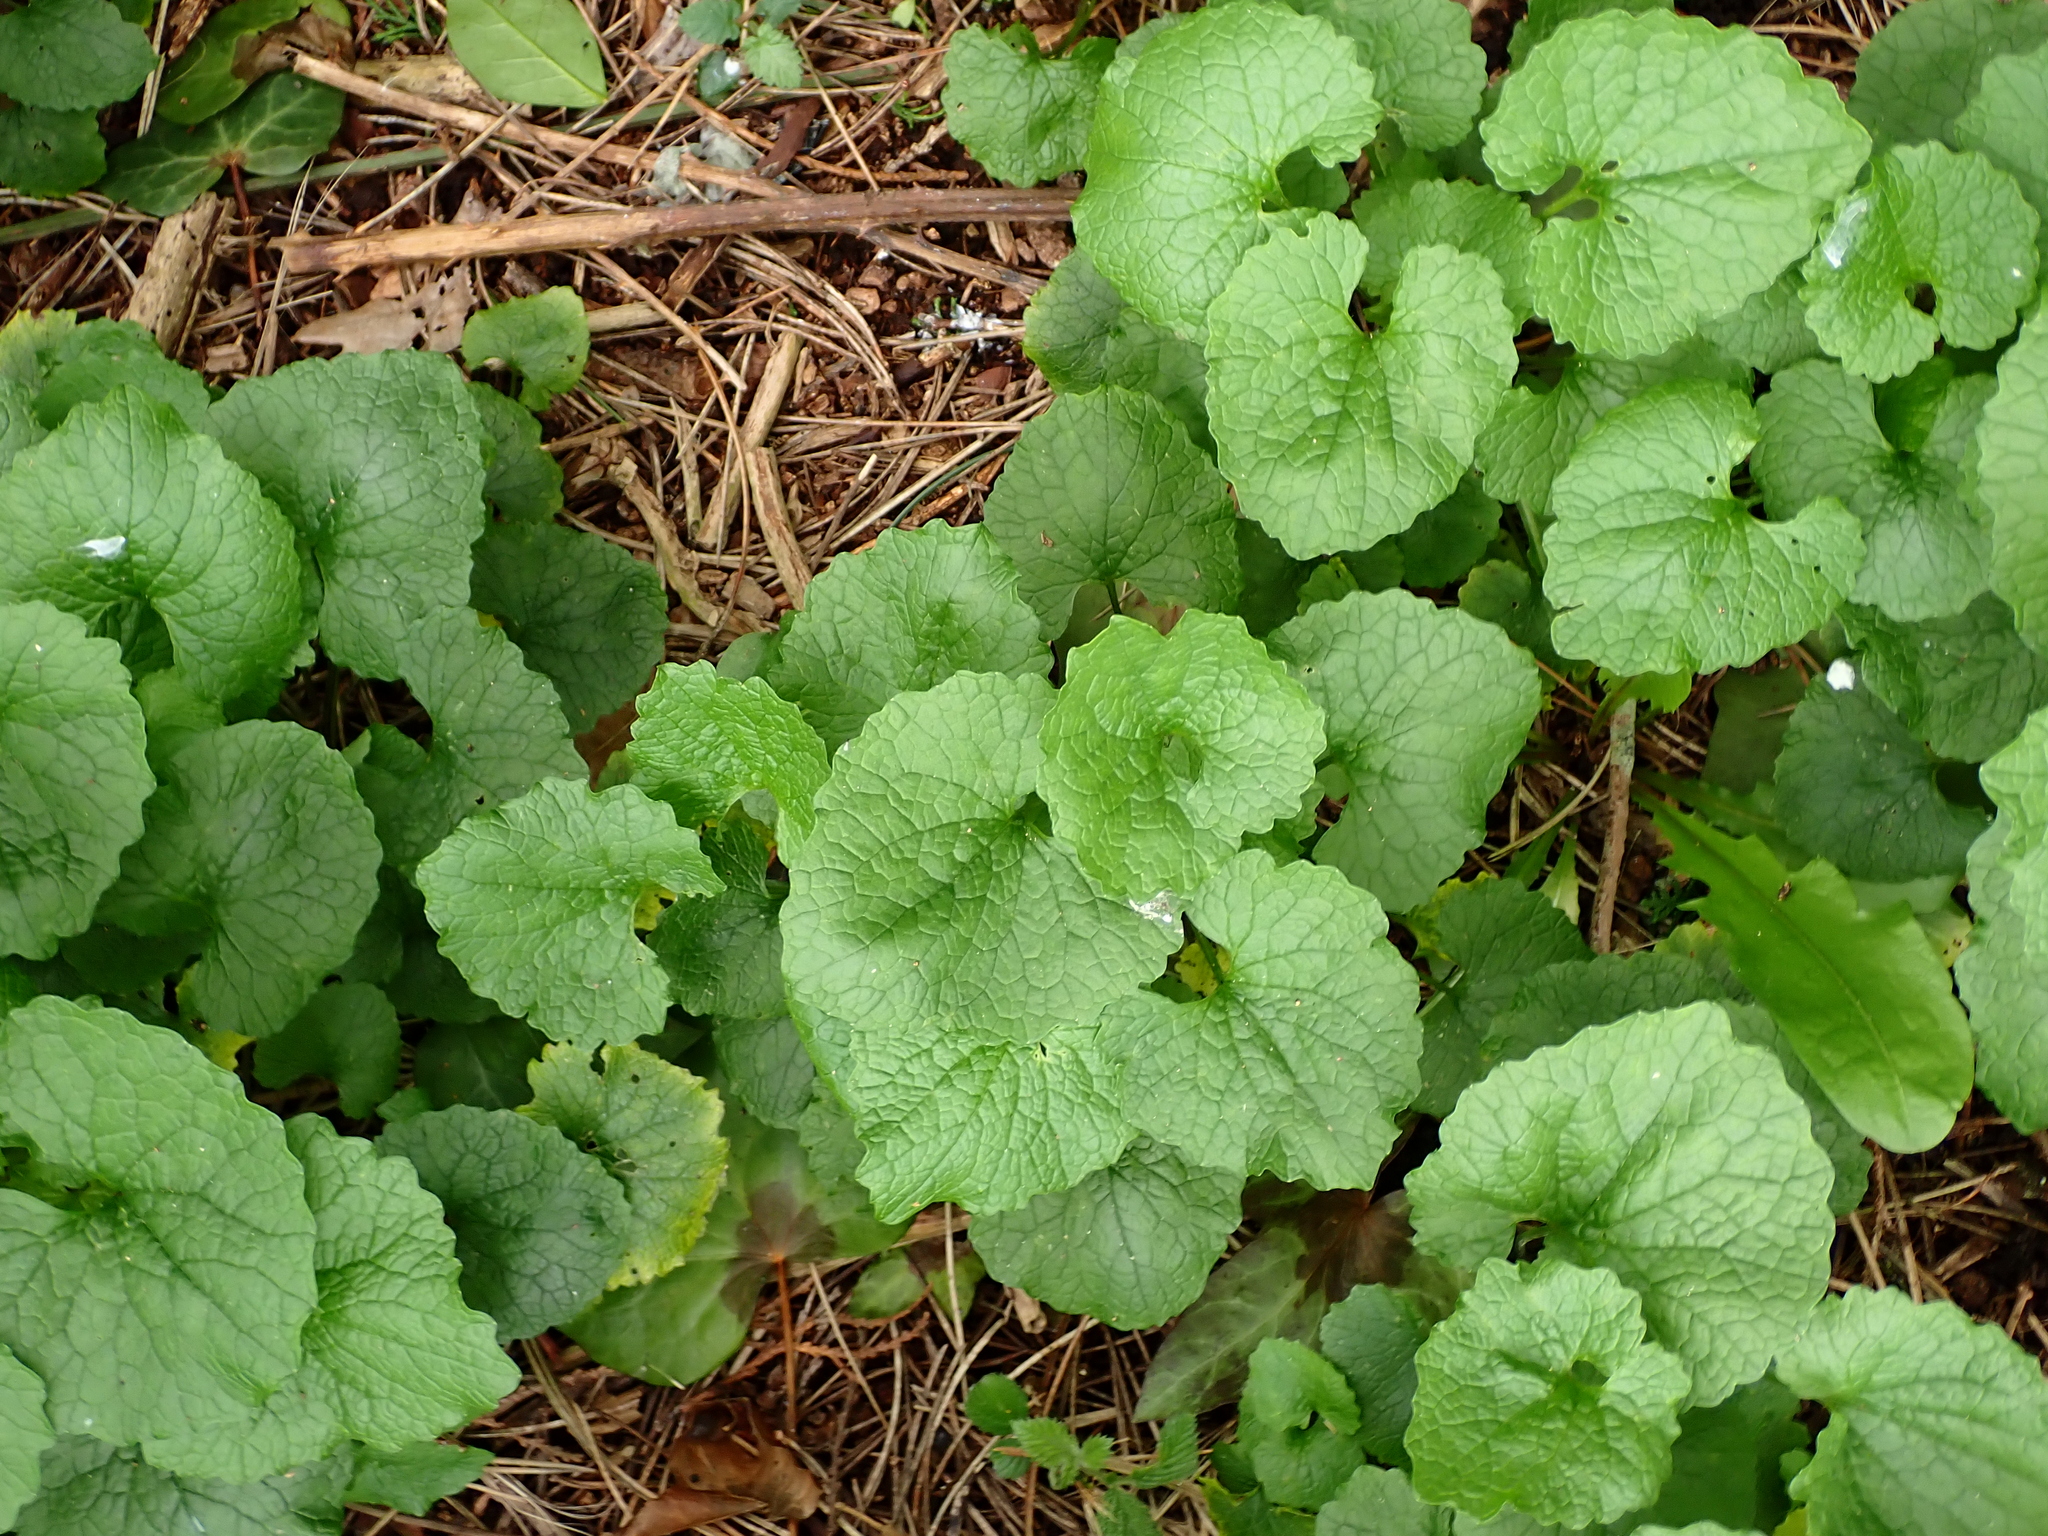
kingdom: Plantae
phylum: Tracheophyta
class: Magnoliopsida
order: Brassicales
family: Brassicaceae
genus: Alliaria
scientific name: Alliaria petiolata
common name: Garlic mustard
